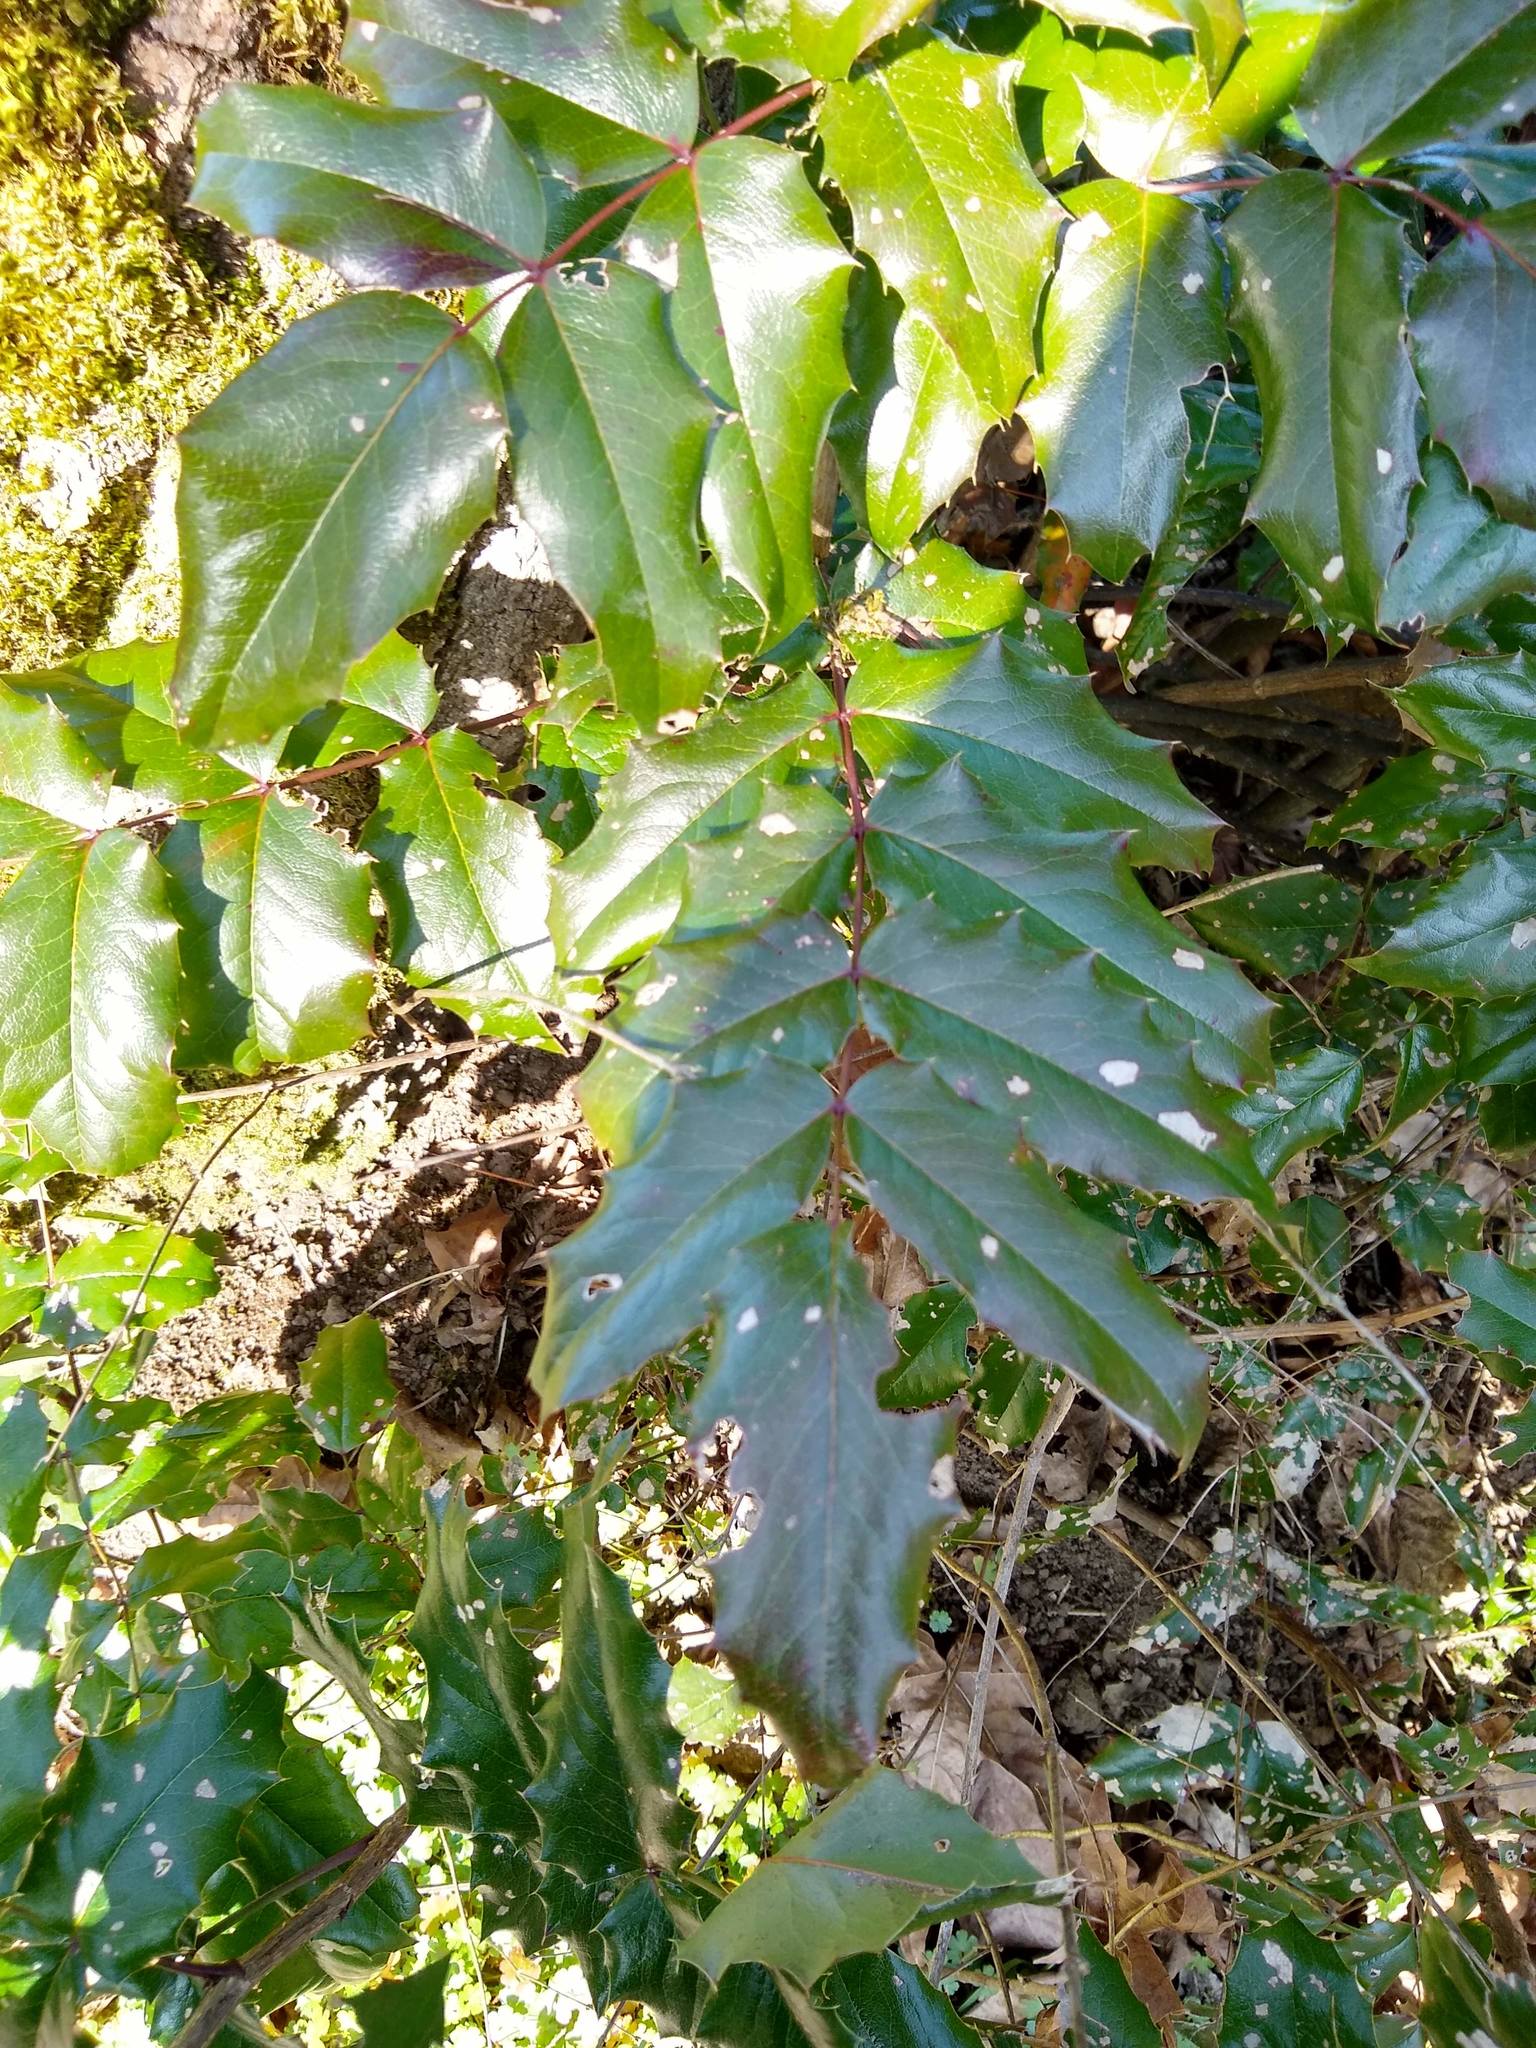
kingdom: Plantae
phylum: Tracheophyta
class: Magnoliopsida
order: Ranunculales
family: Berberidaceae
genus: Mahonia
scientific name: Mahonia aquifolium
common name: Oregon-grape
